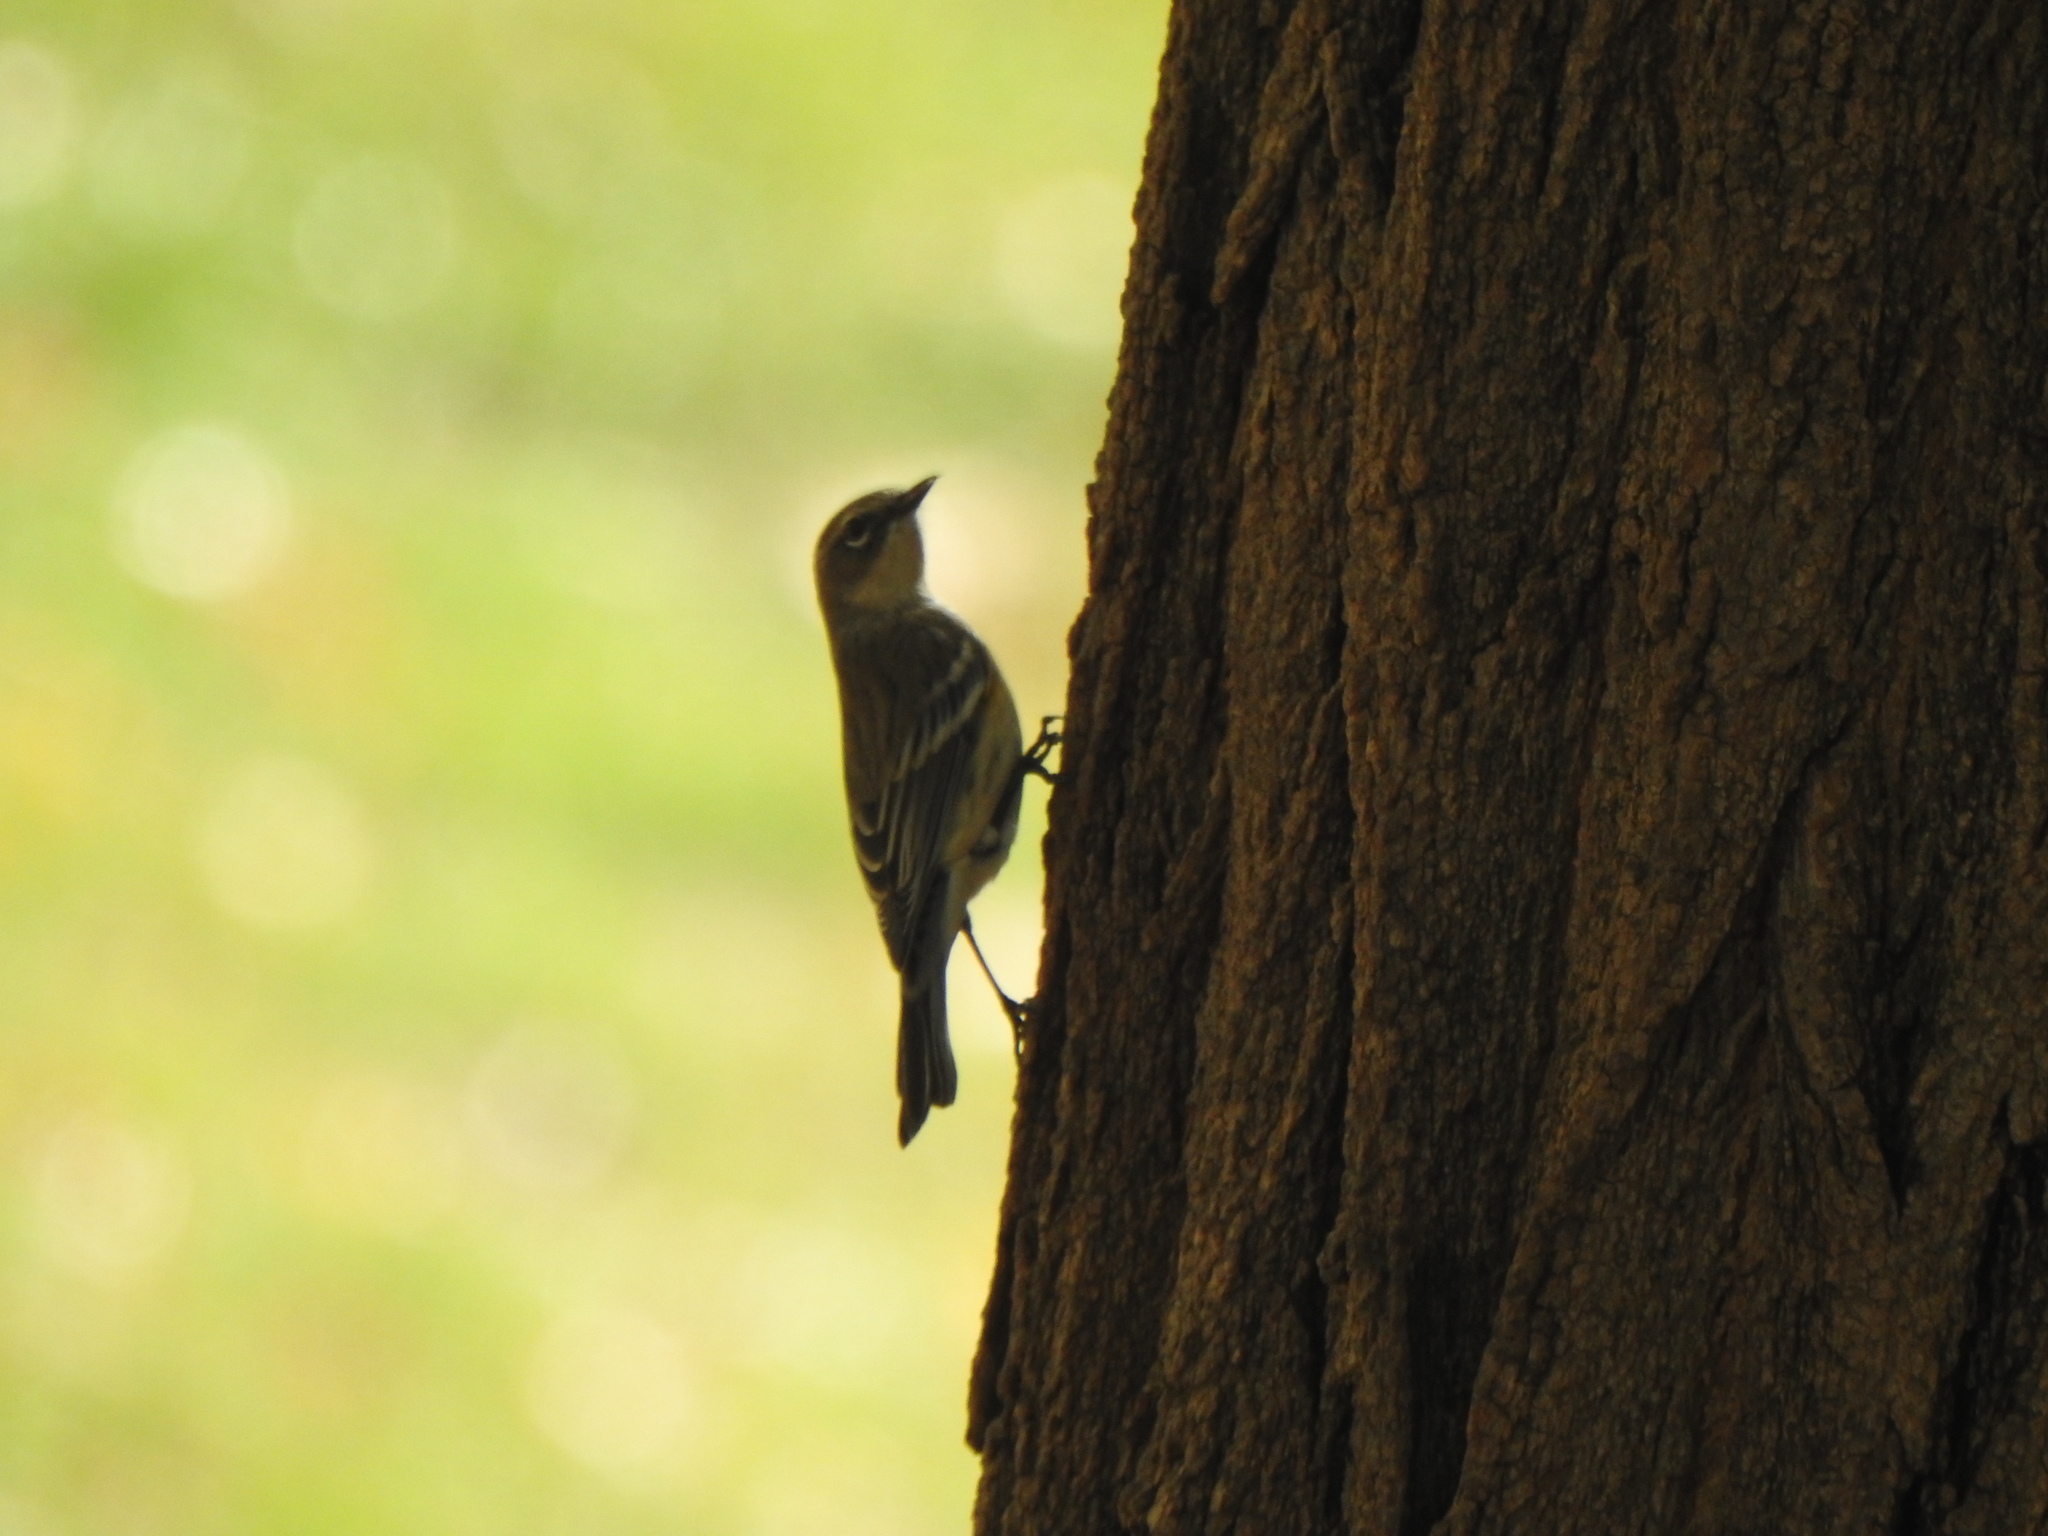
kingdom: Animalia
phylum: Chordata
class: Aves
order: Passeriformes
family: Parulidae
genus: Setophaga
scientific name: Setophaga coronata
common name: Myrtle warbler
